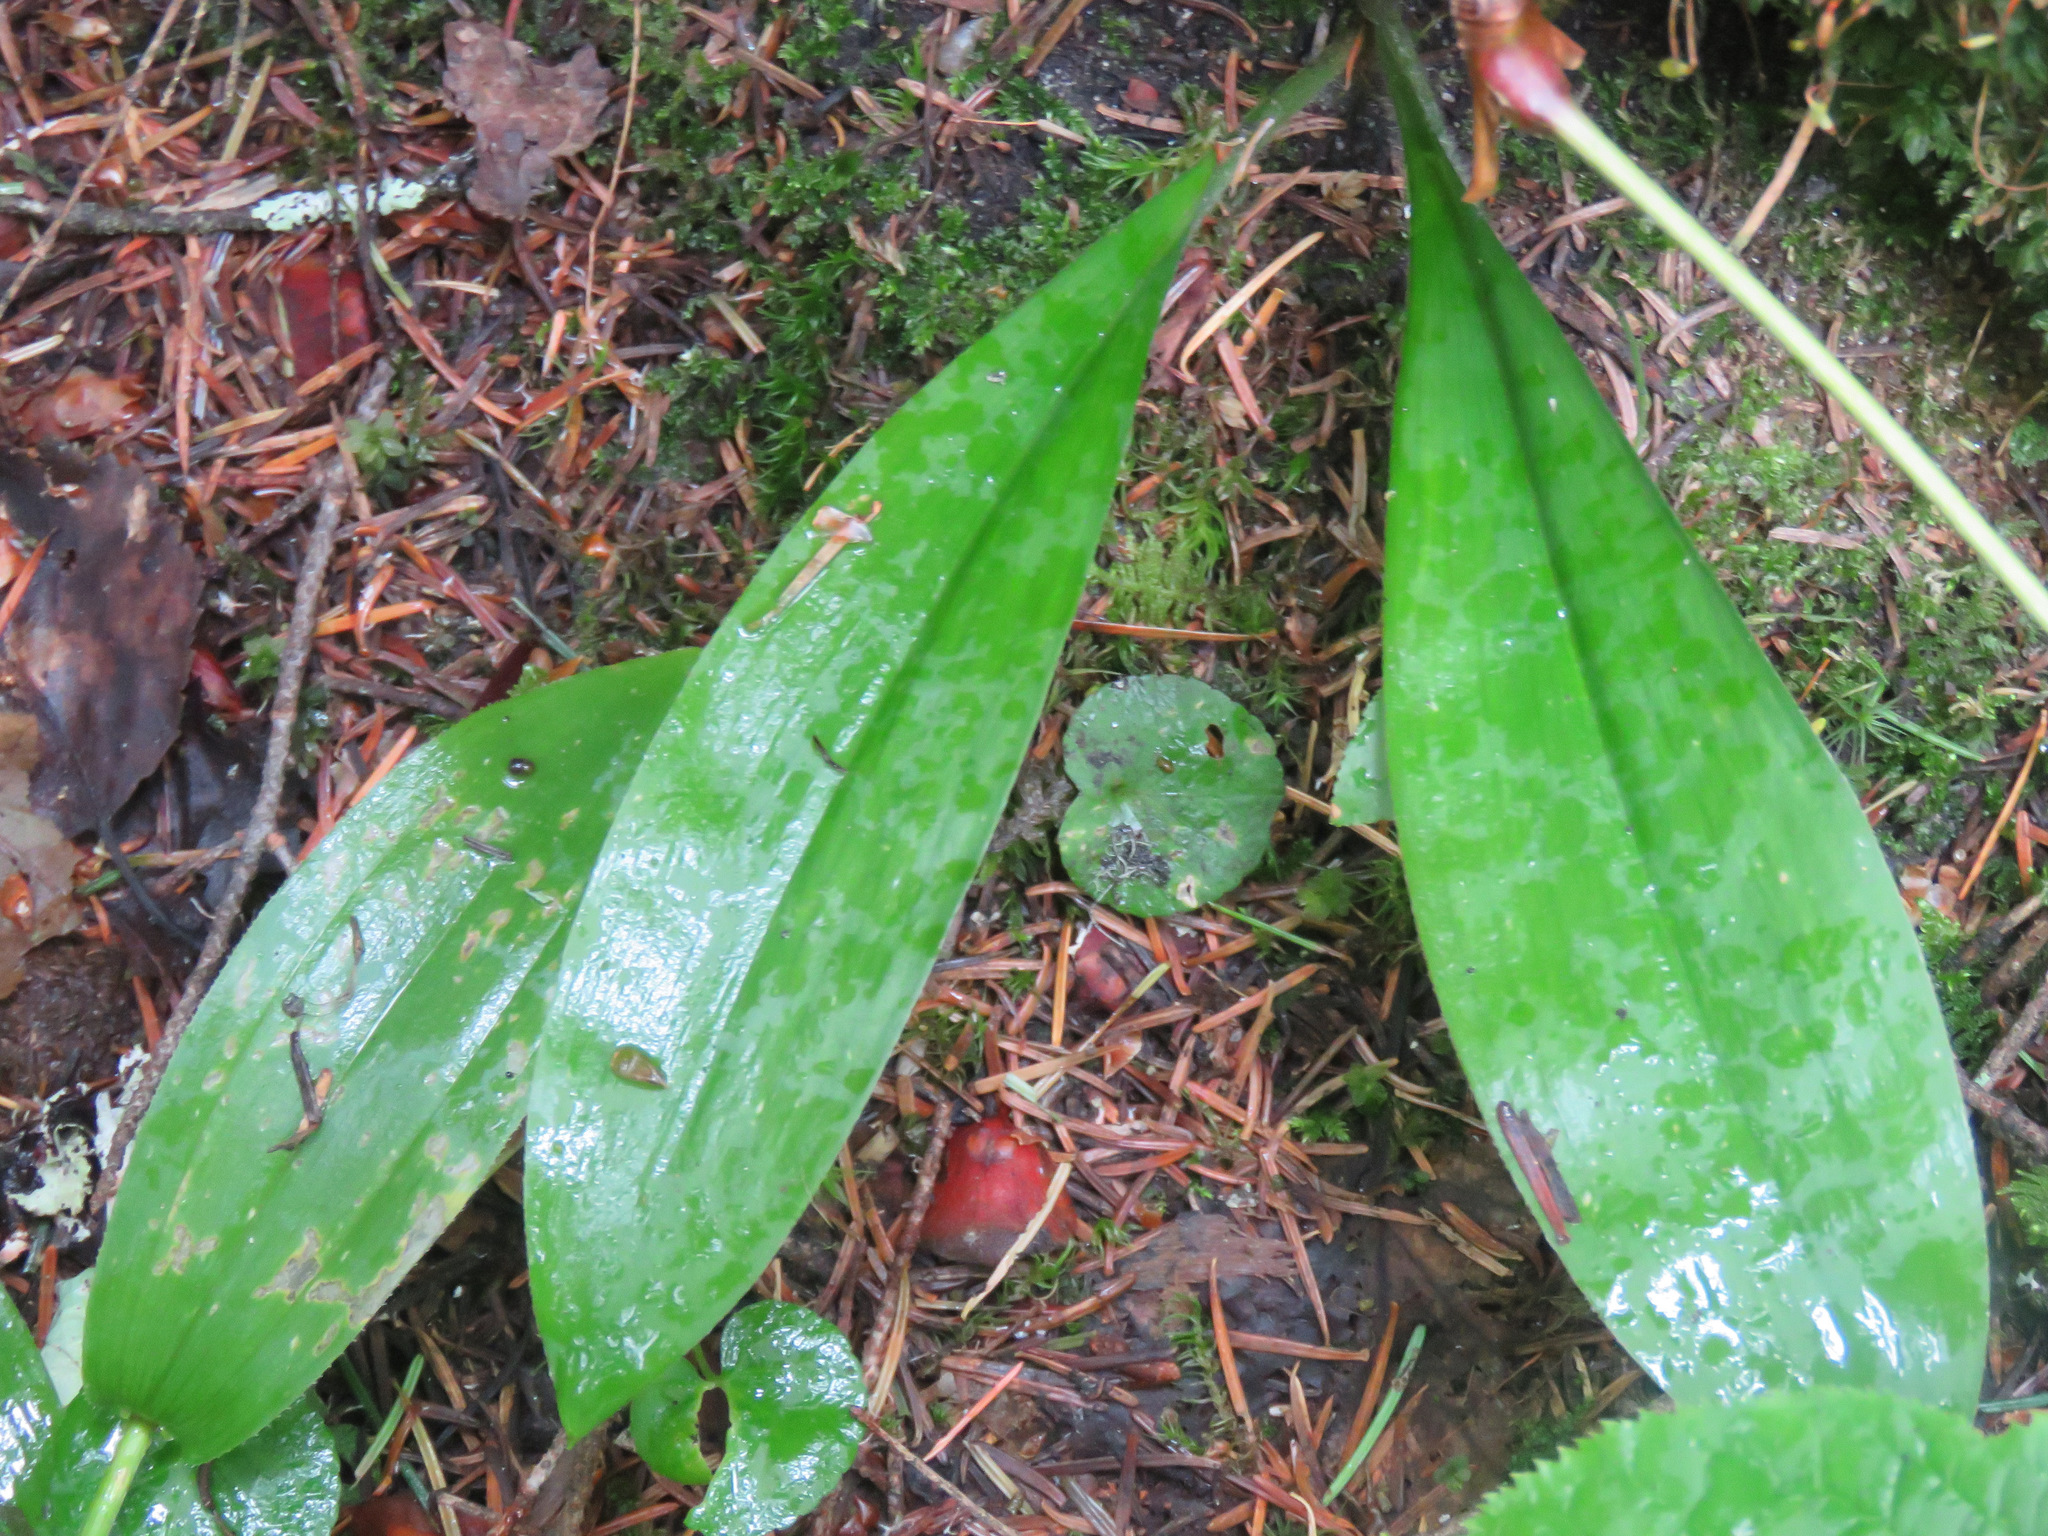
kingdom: Plantae
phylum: Tracheophyta
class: Liliopsida
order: Liliales
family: Liliaceae
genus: Clintonia
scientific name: Clintonia uniflora
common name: Queen's cup
